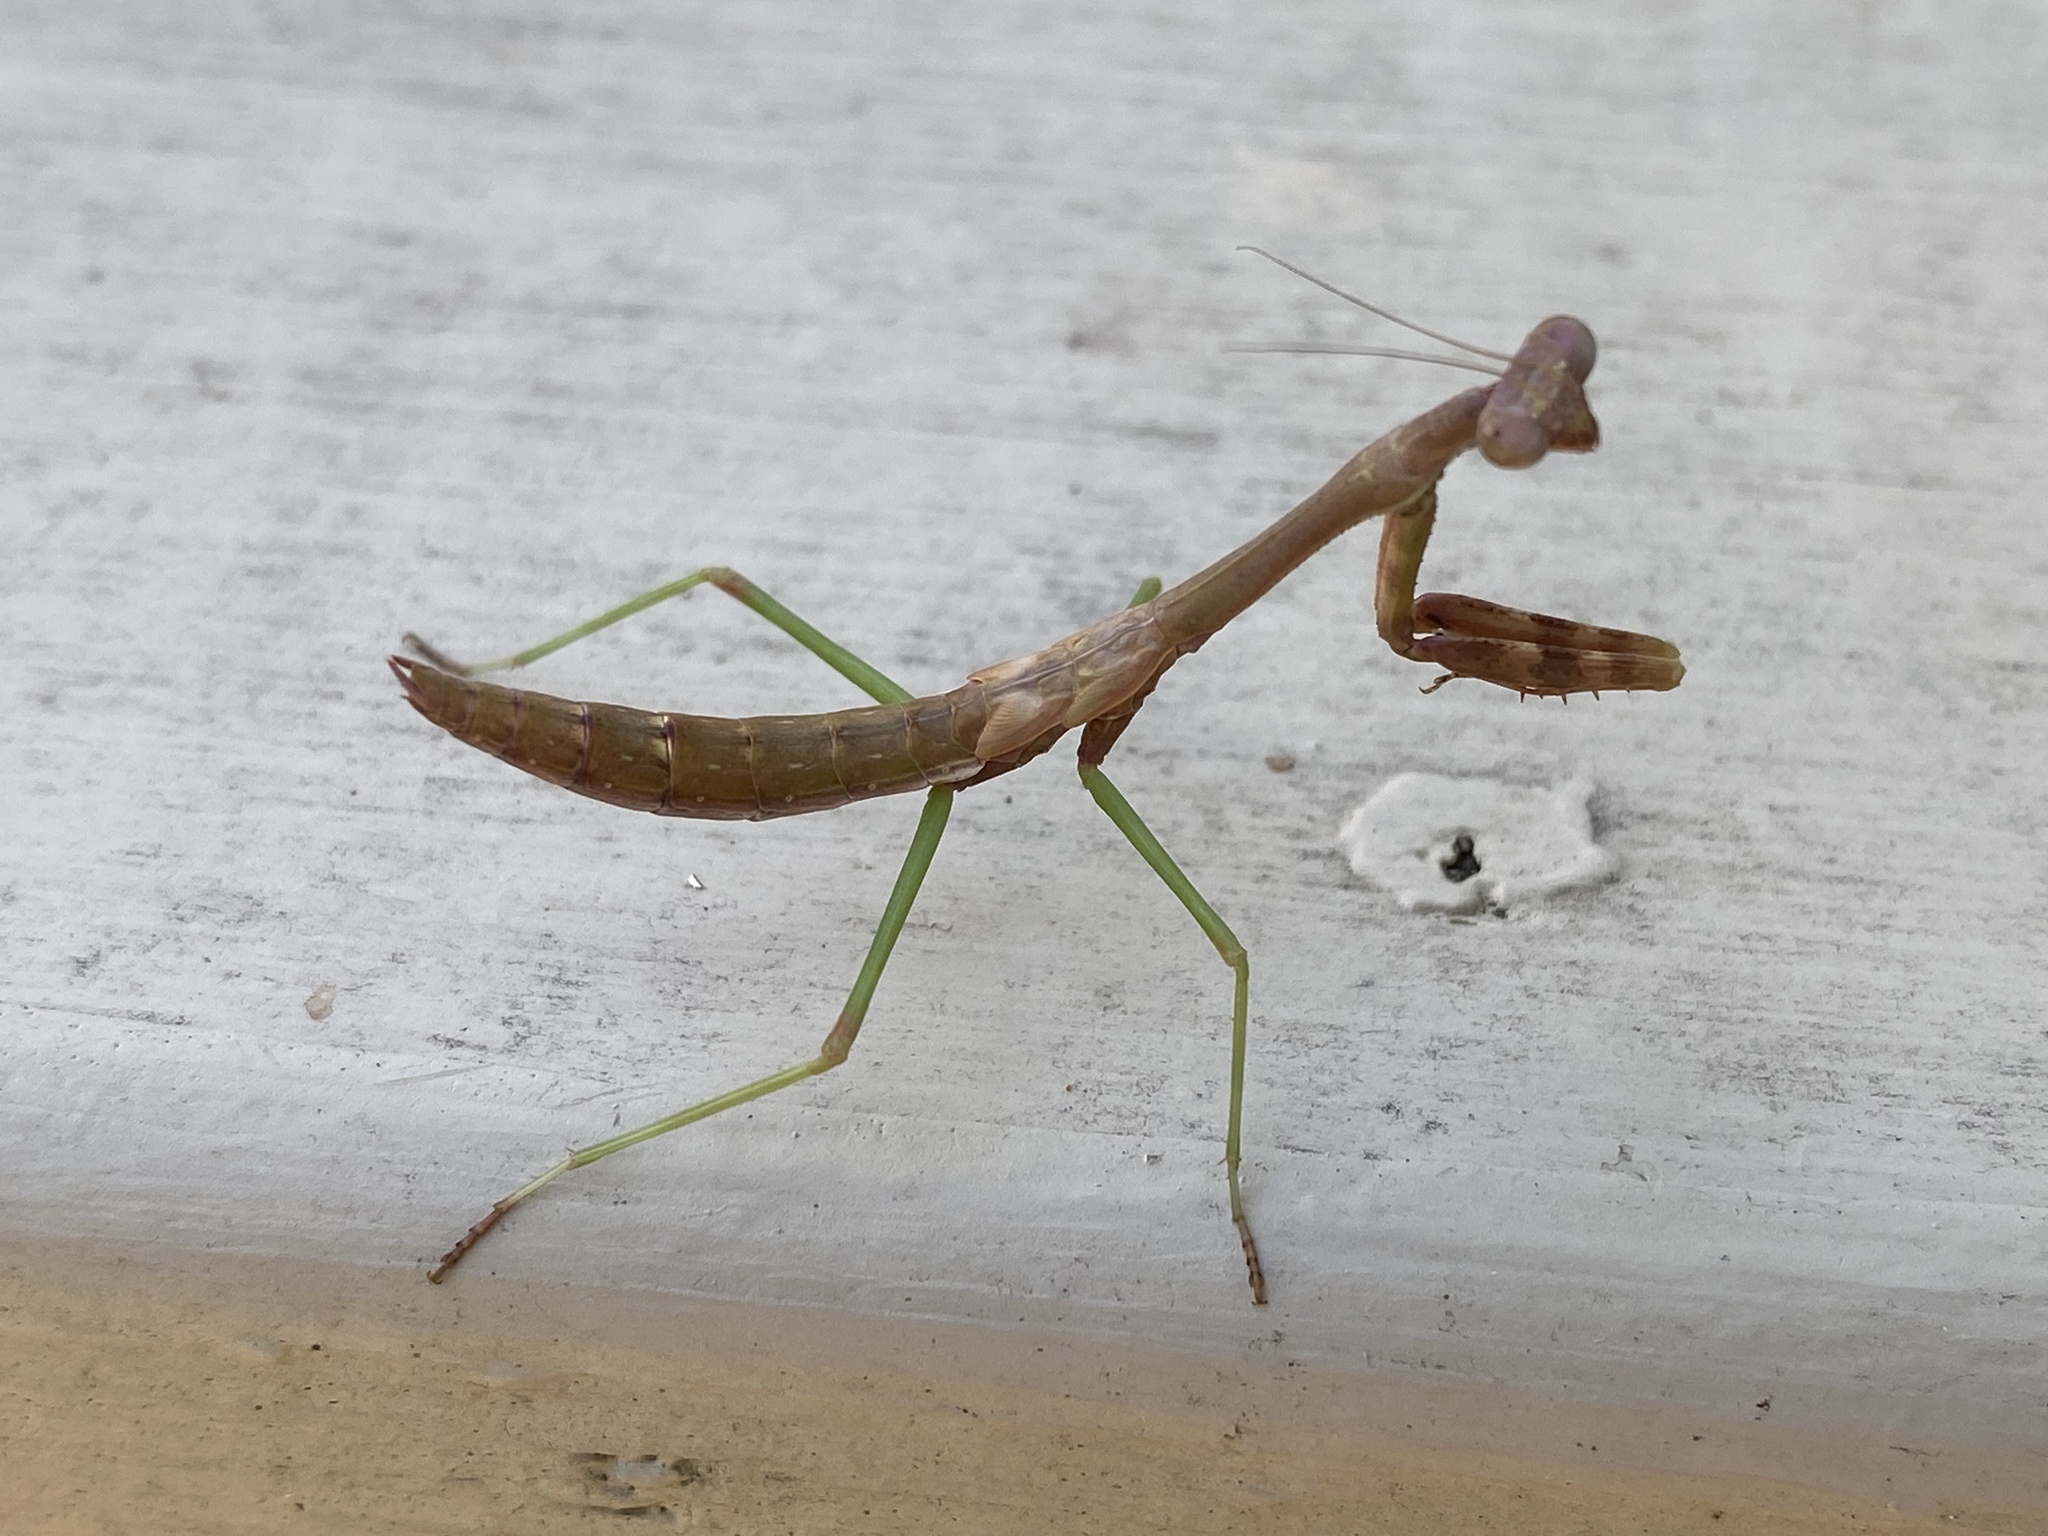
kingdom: Animalia
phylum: Arthropoda
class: Insecta
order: Mantodea
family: Mantidae
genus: Stagmomantis
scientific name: Stagmomantis carolina
